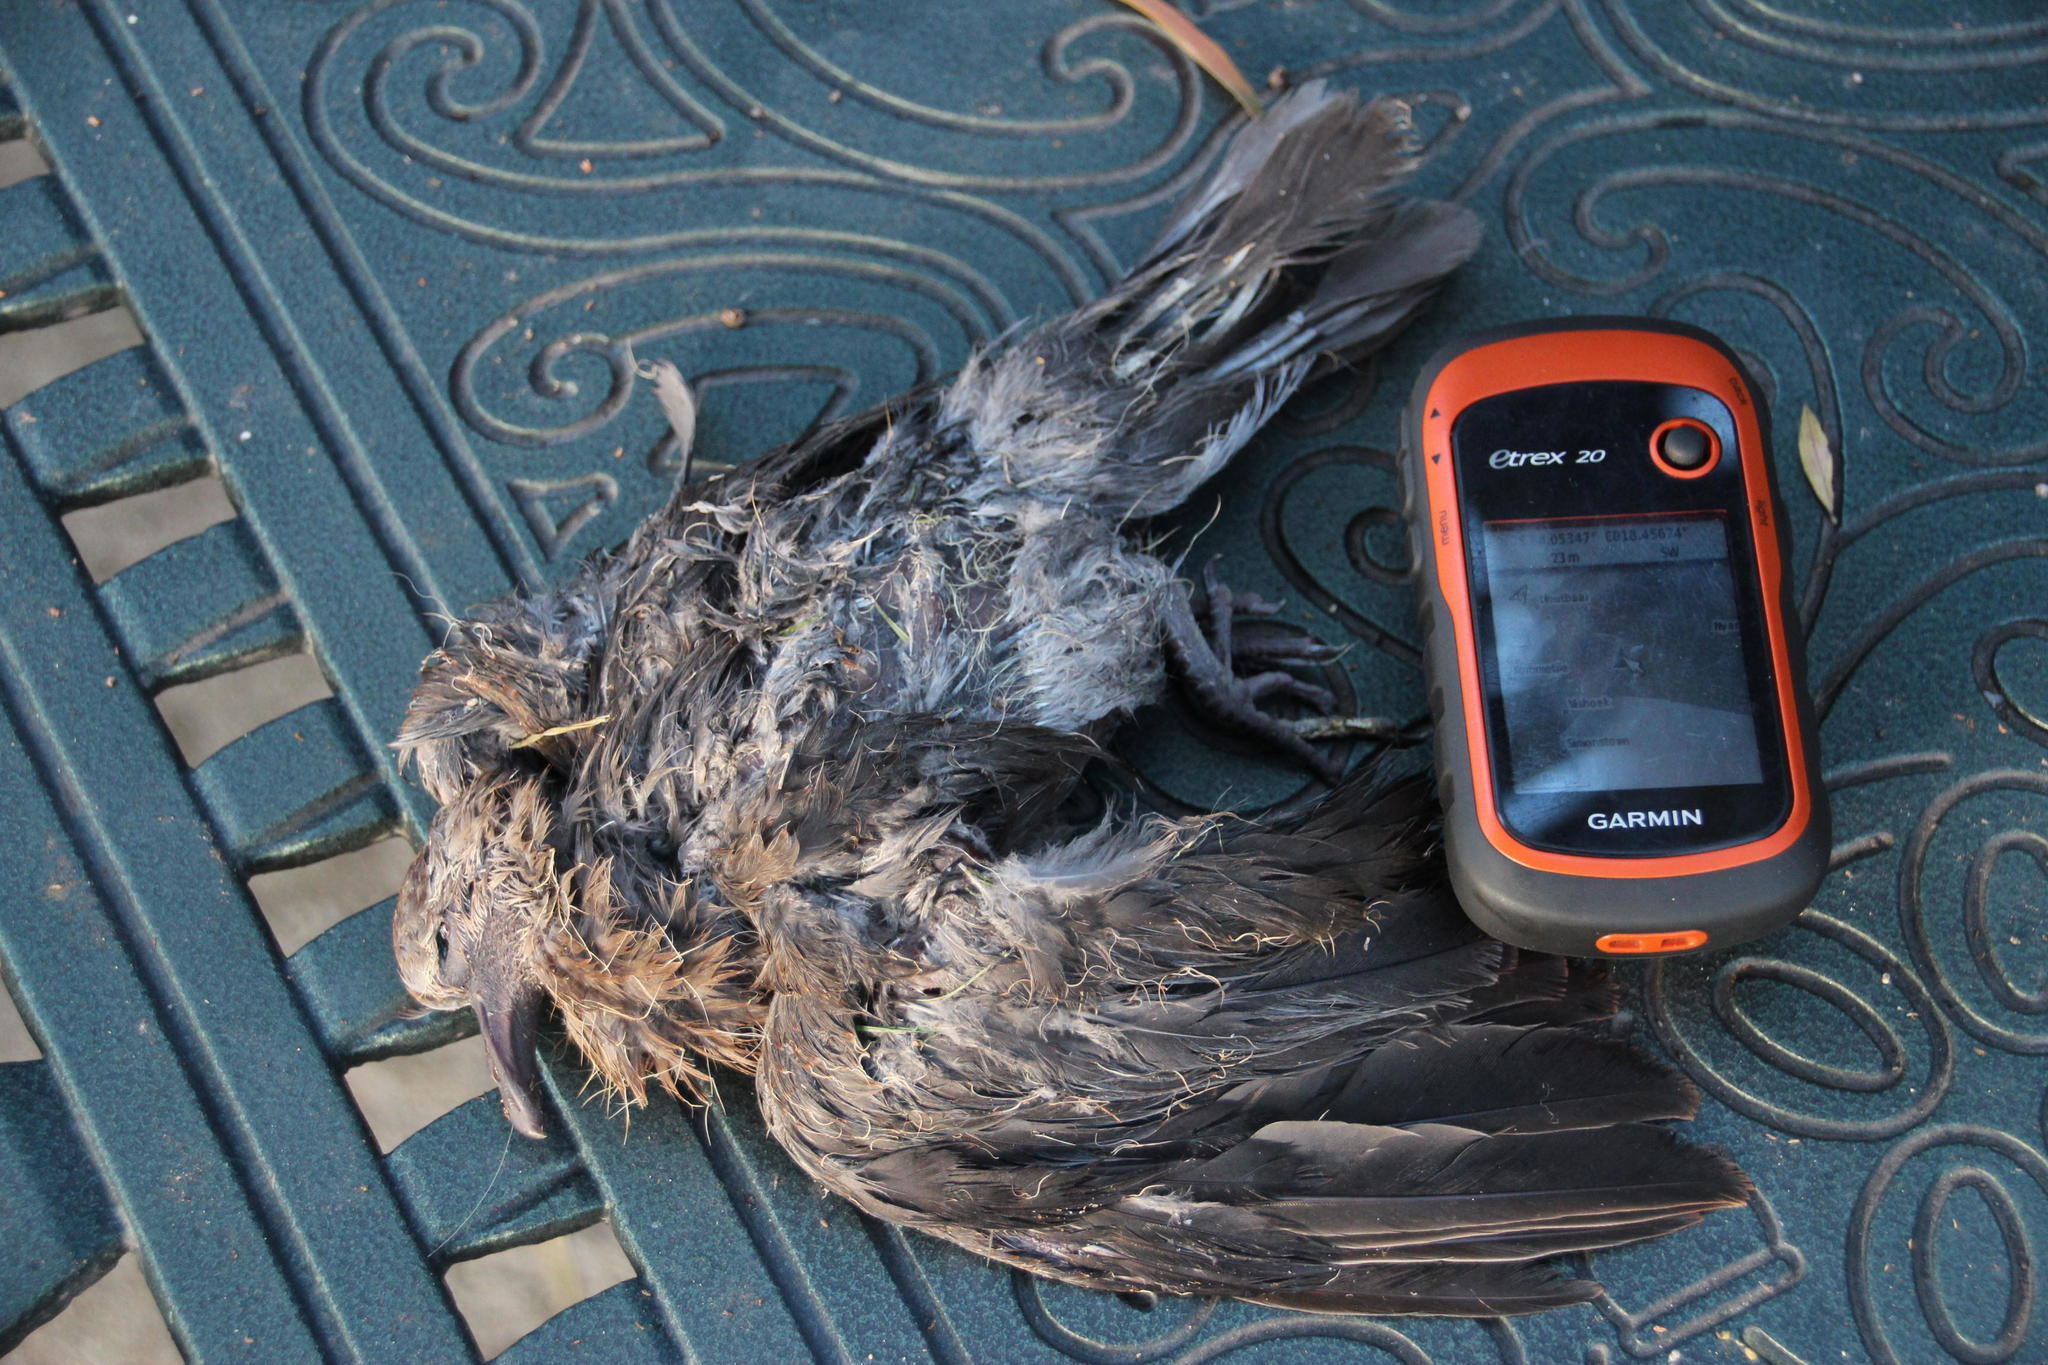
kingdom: Animalia
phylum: Chordata
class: Aves
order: Columbiformes
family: Columbidae
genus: Streptopelia
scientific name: Streptopelia semitorquata
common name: Red-eyed dove
